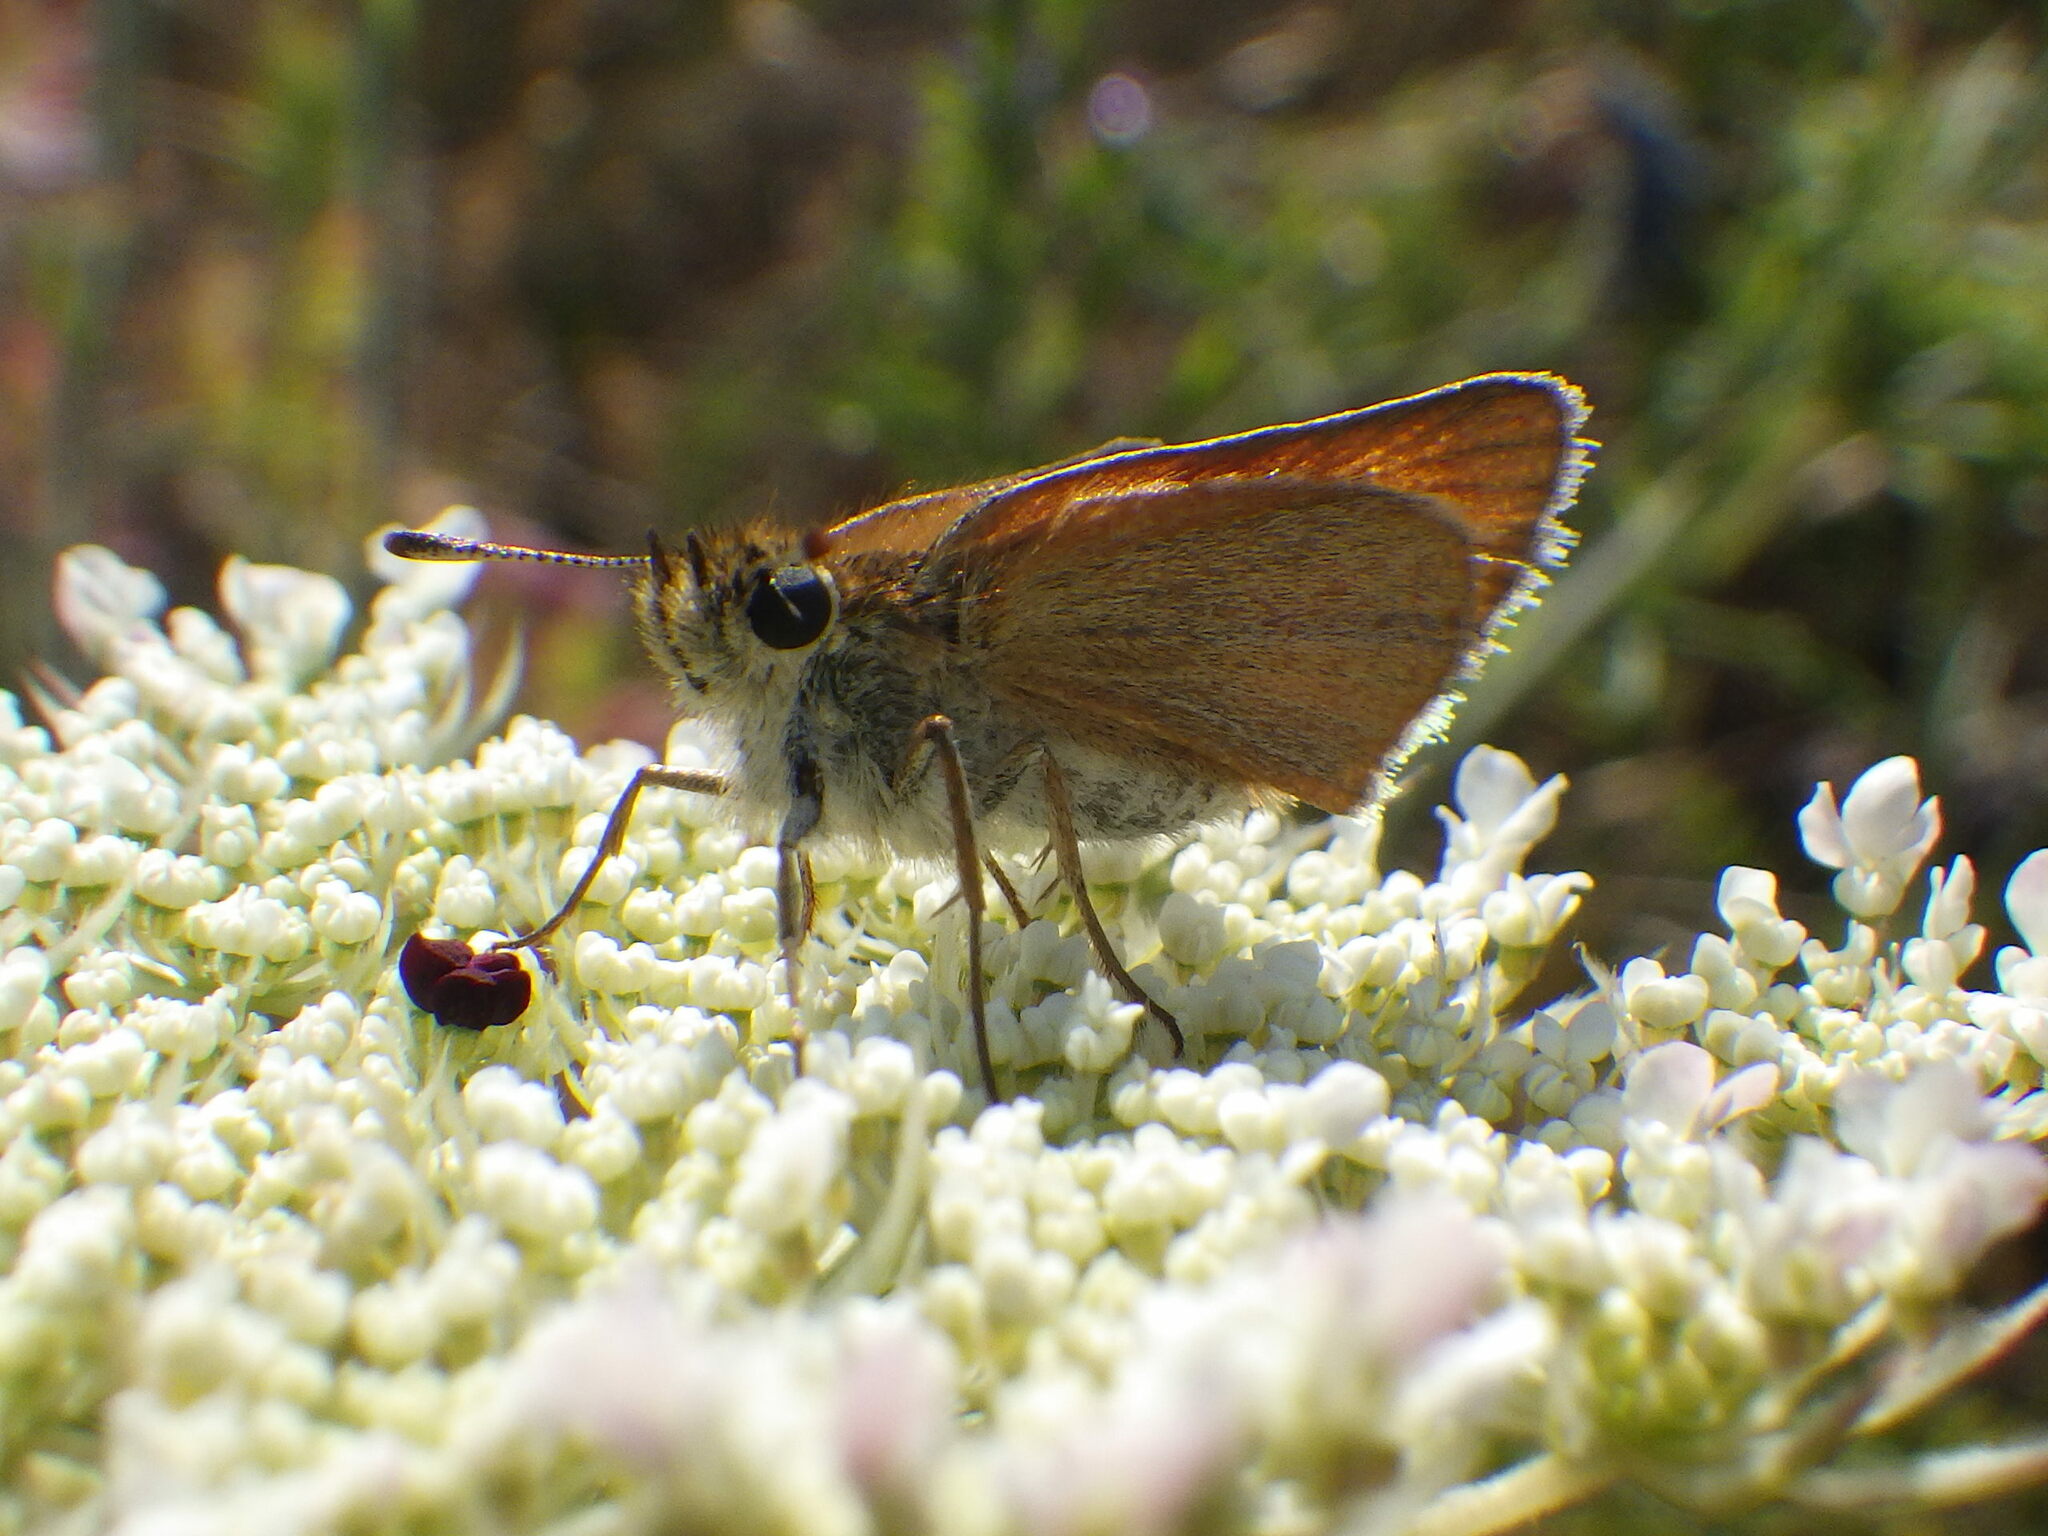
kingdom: Animalia
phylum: Arthropoda
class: Insecta
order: Lepidoptera
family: Hesperiidae
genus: Thymelicus
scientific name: Thymelicus lineola
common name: Essex skipper
